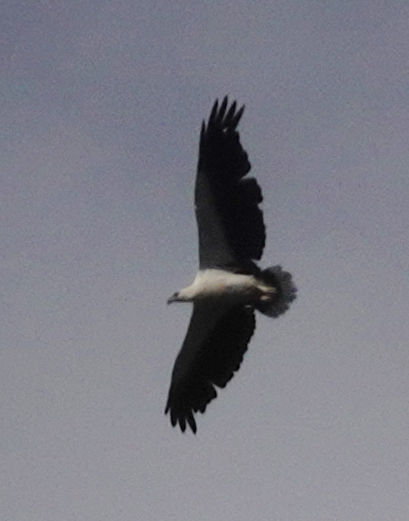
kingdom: Animalia
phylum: Chordata
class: Aves
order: Accipitriformes
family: Accipitridae
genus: Haliaeetus
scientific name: Haliaeetus leucogaster
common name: White-bellied sea eagle
